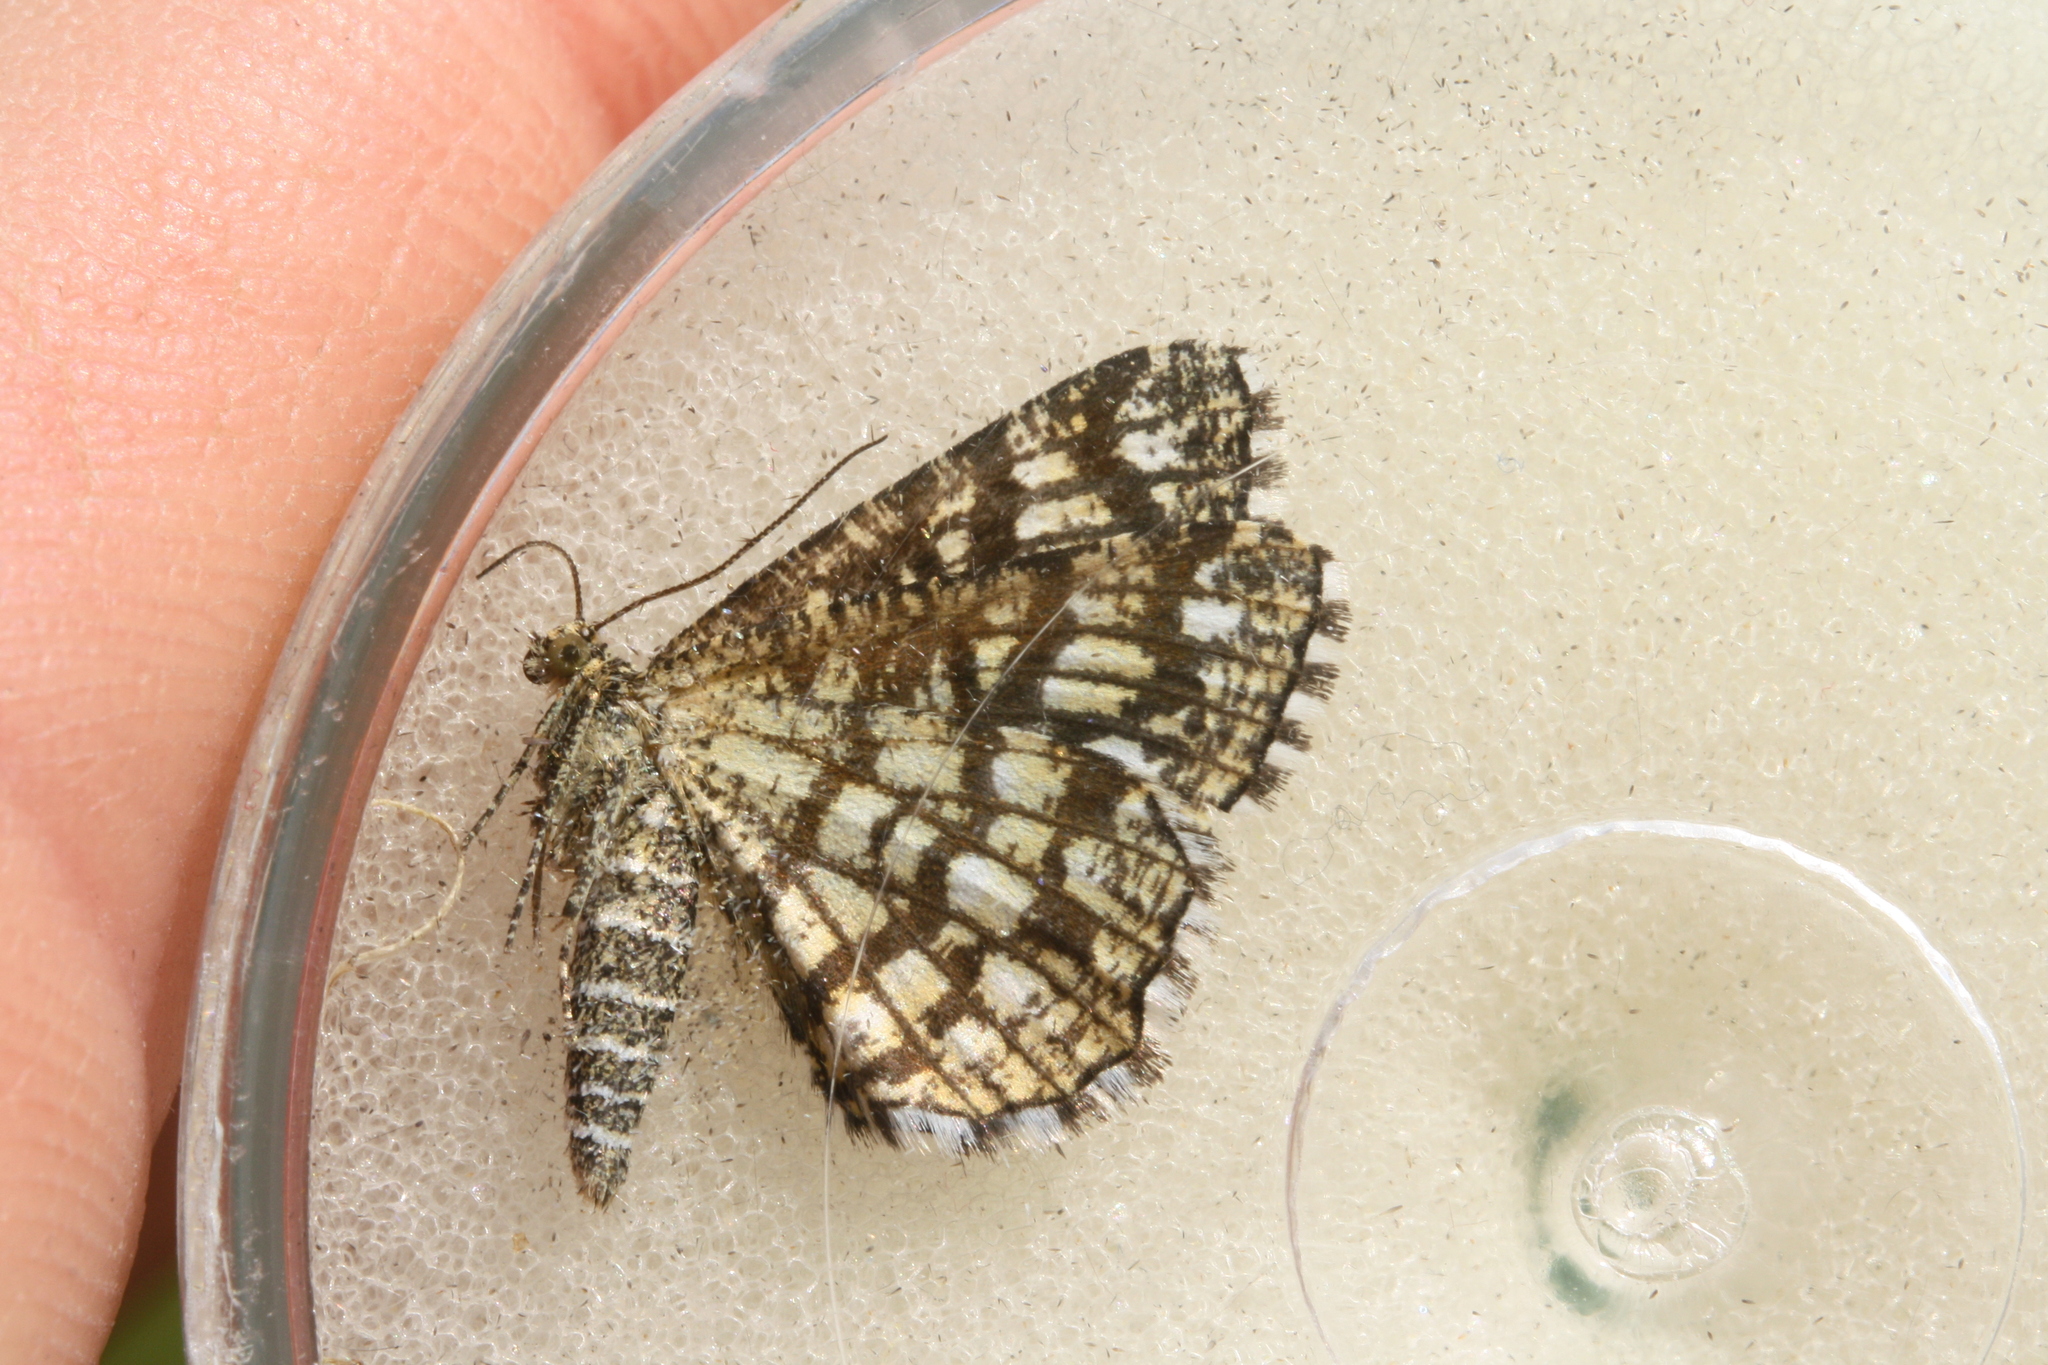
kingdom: Animalia
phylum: Arthropoda
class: Insecta
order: Lepidoptera
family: Geometridae
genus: Chiasmia
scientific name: Chiasmia clathrata
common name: Latticed heath
